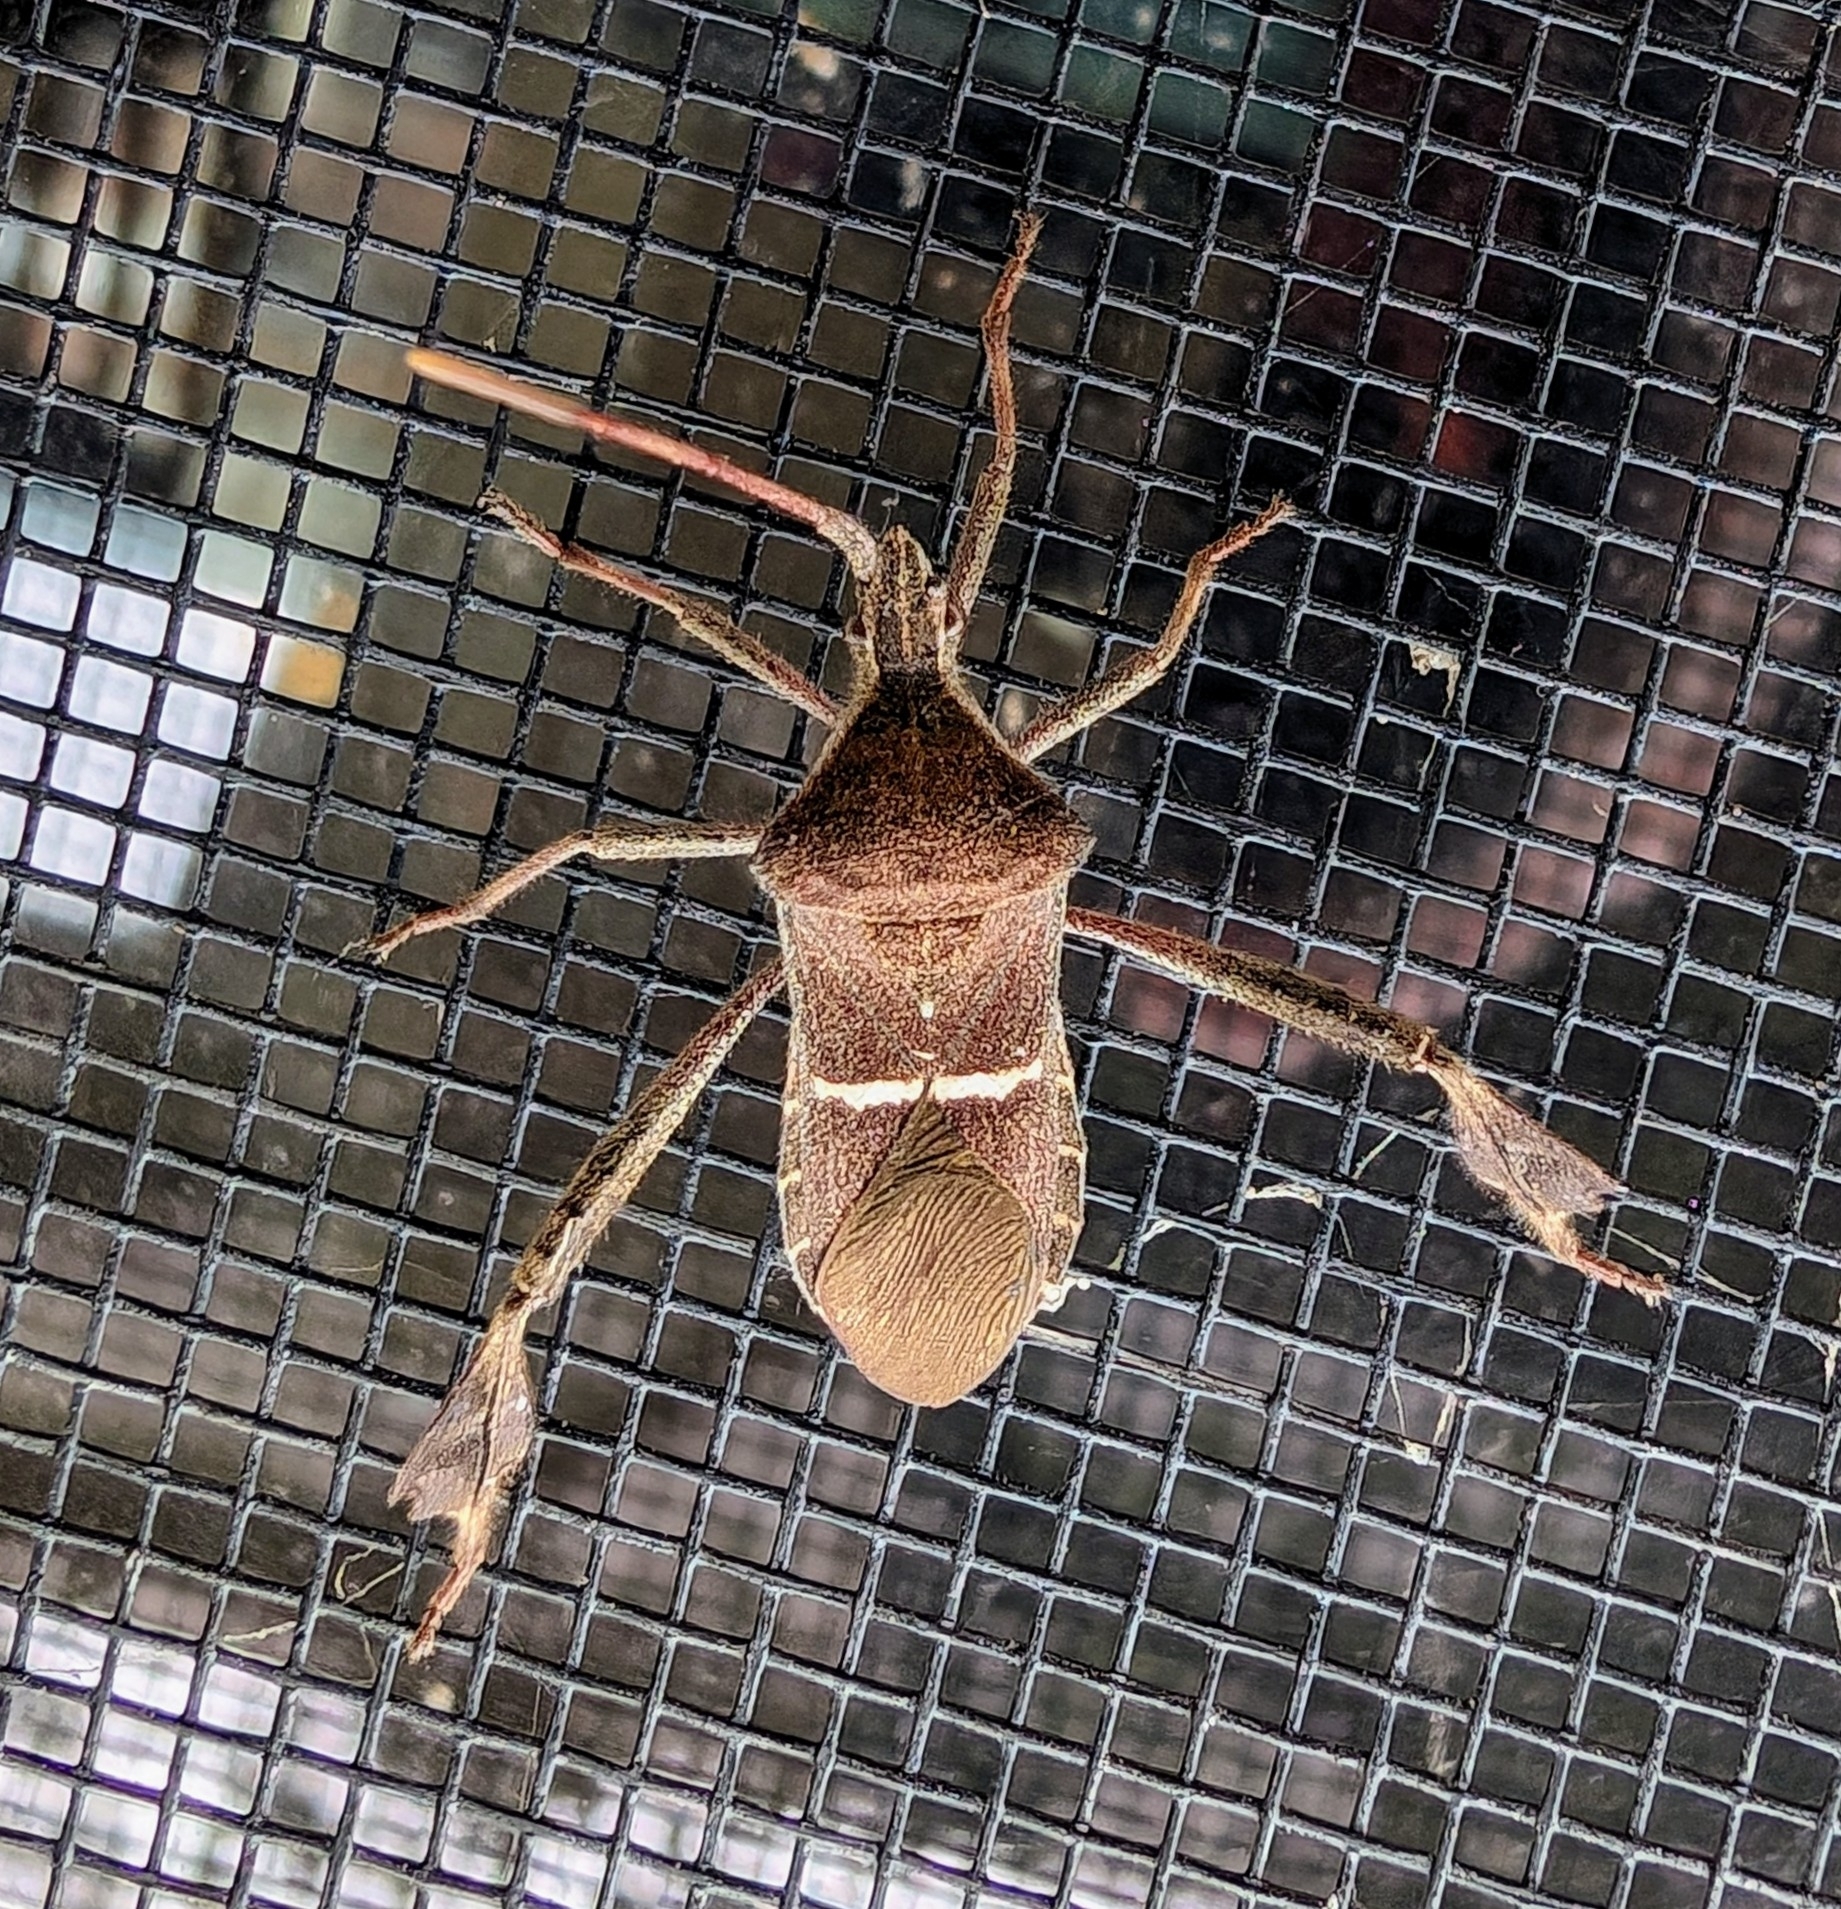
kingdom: Animalia
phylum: Arthropoda
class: Insecta
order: Hemiptera
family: Coreidae
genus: Leptoglossus
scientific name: Leptoglossus phyllopus
